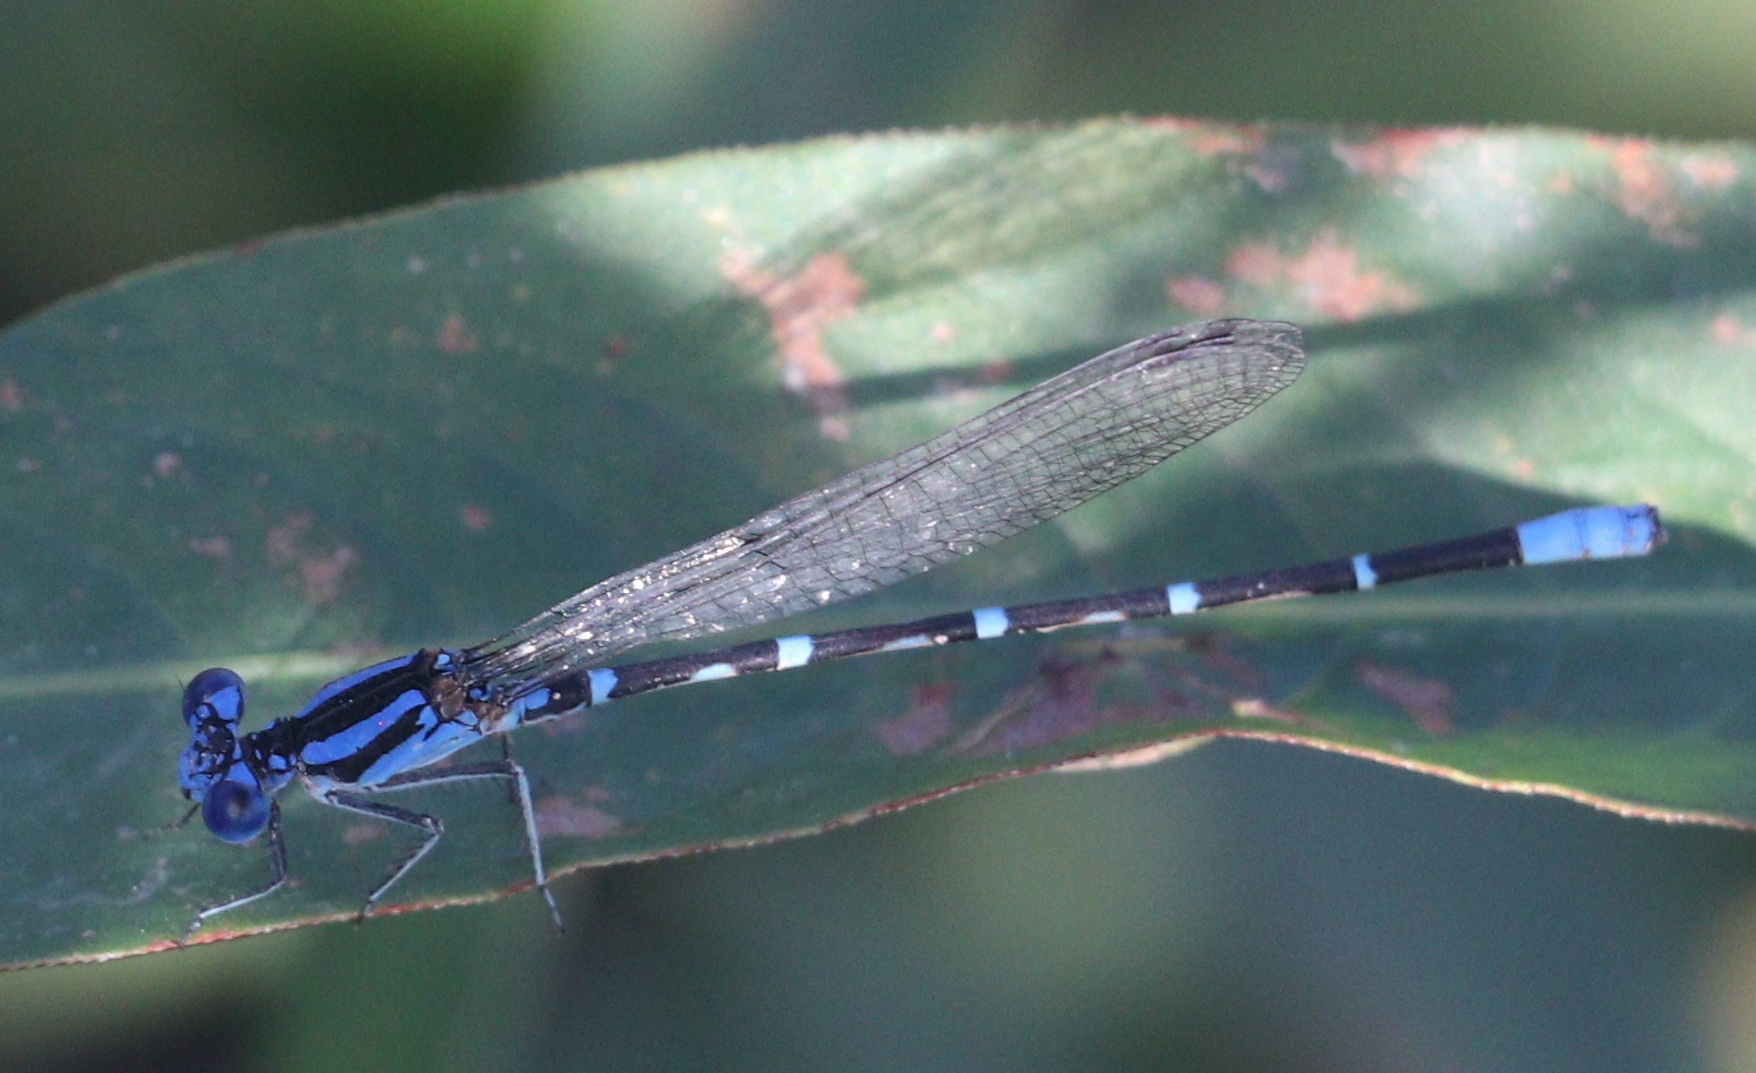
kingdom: Animalia
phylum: Arthropoda
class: Insecta
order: Odonata
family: Coenagrionidae
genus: Argia
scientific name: Argia sedula
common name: Blue-ringed dancer
